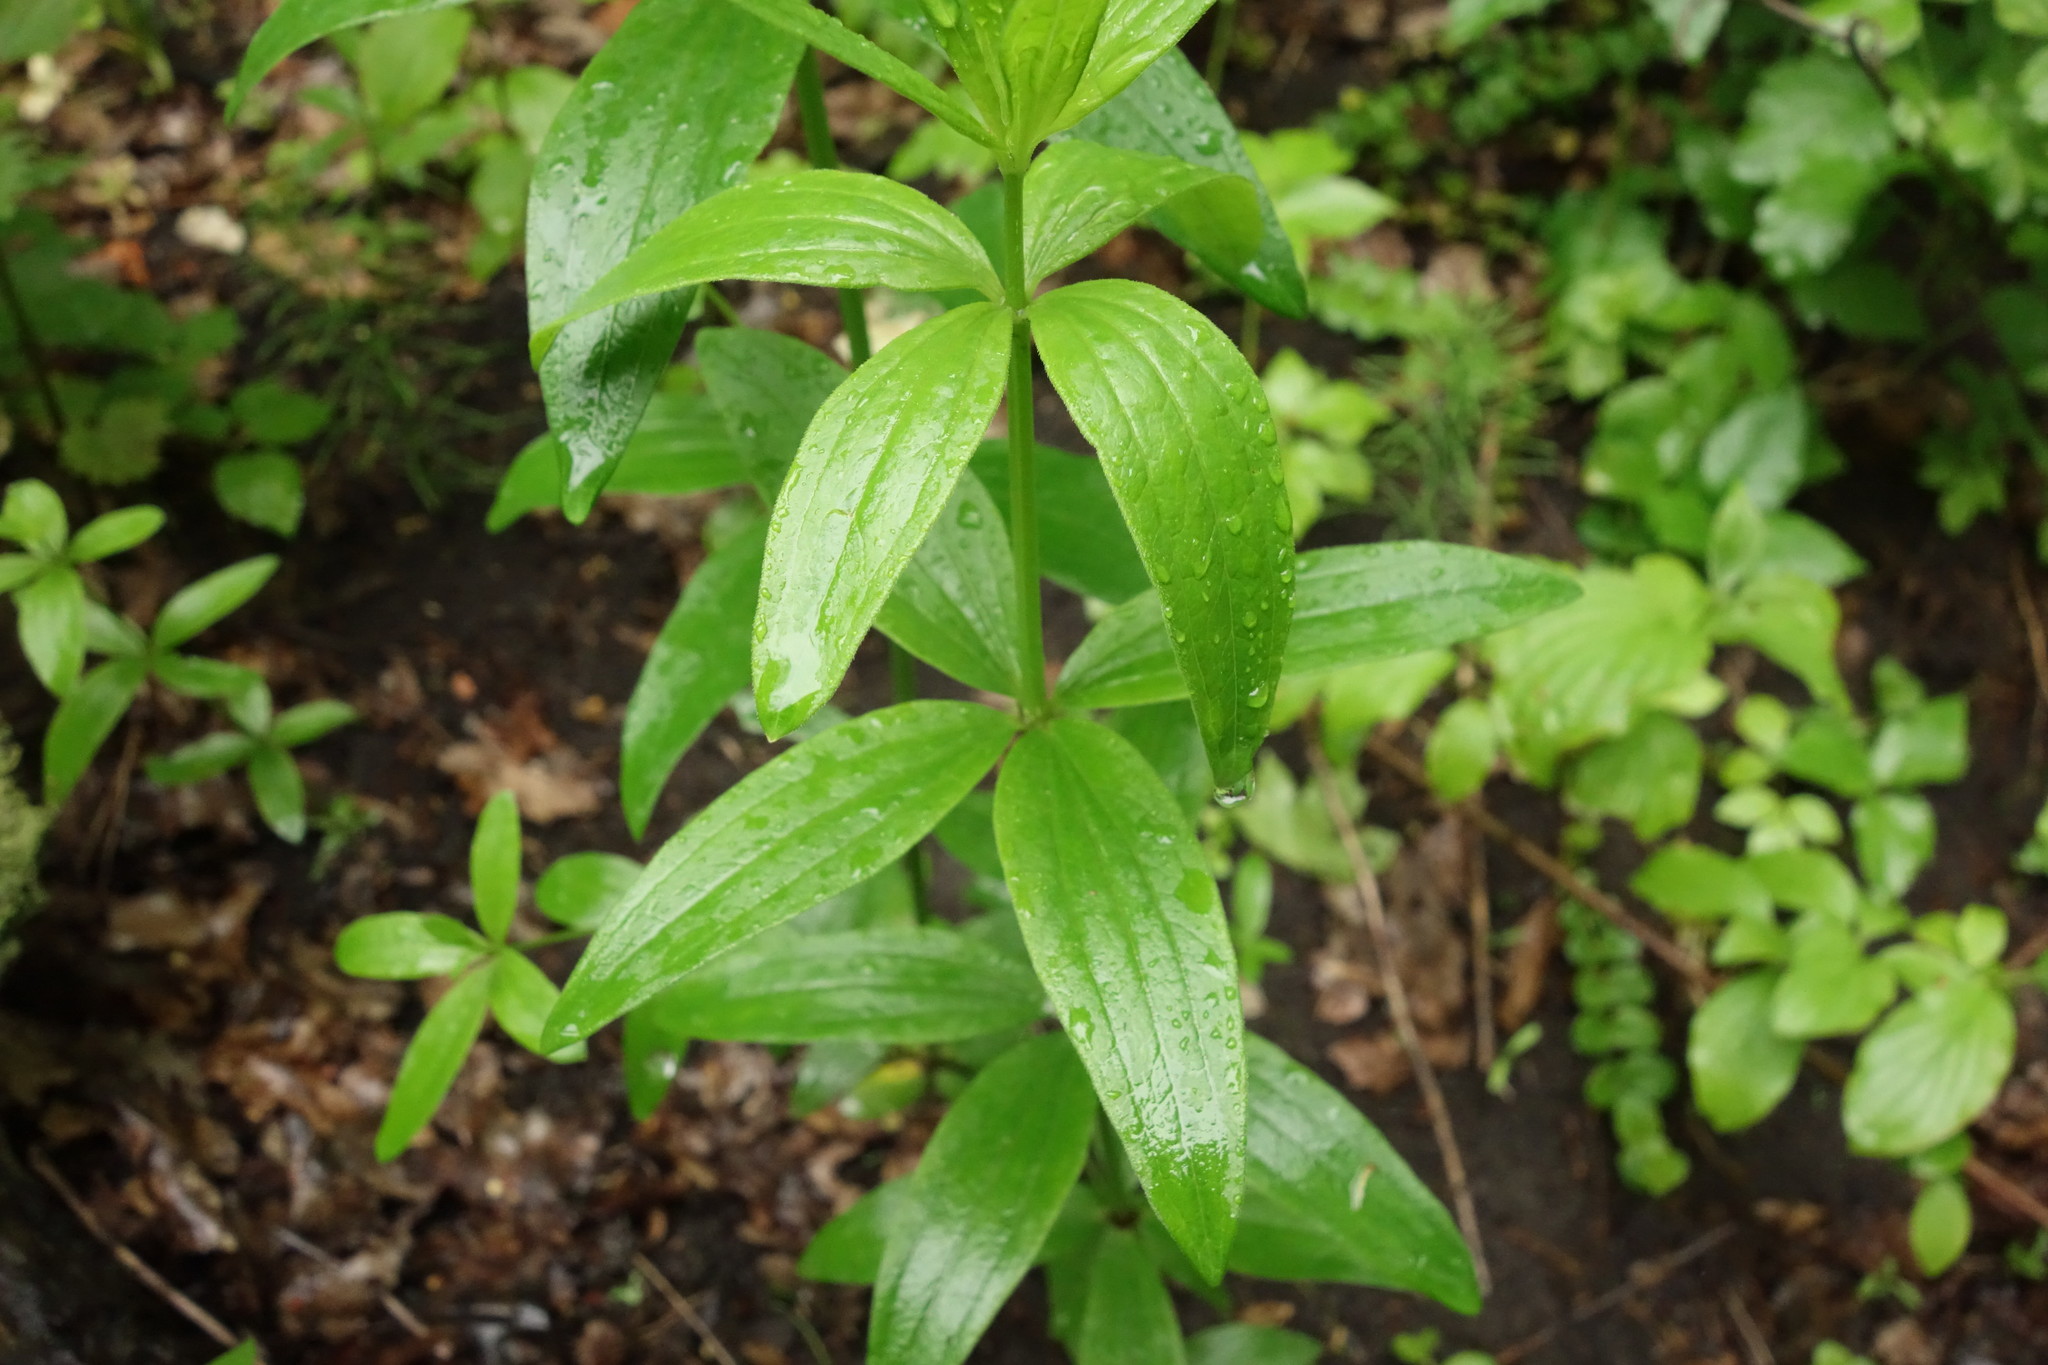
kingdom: Plantae
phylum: Tracheophyta
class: Magnoliopsida
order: Gentianales
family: Rubiaceae
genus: Galium
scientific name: Galium rubioides
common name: European bedstraw
